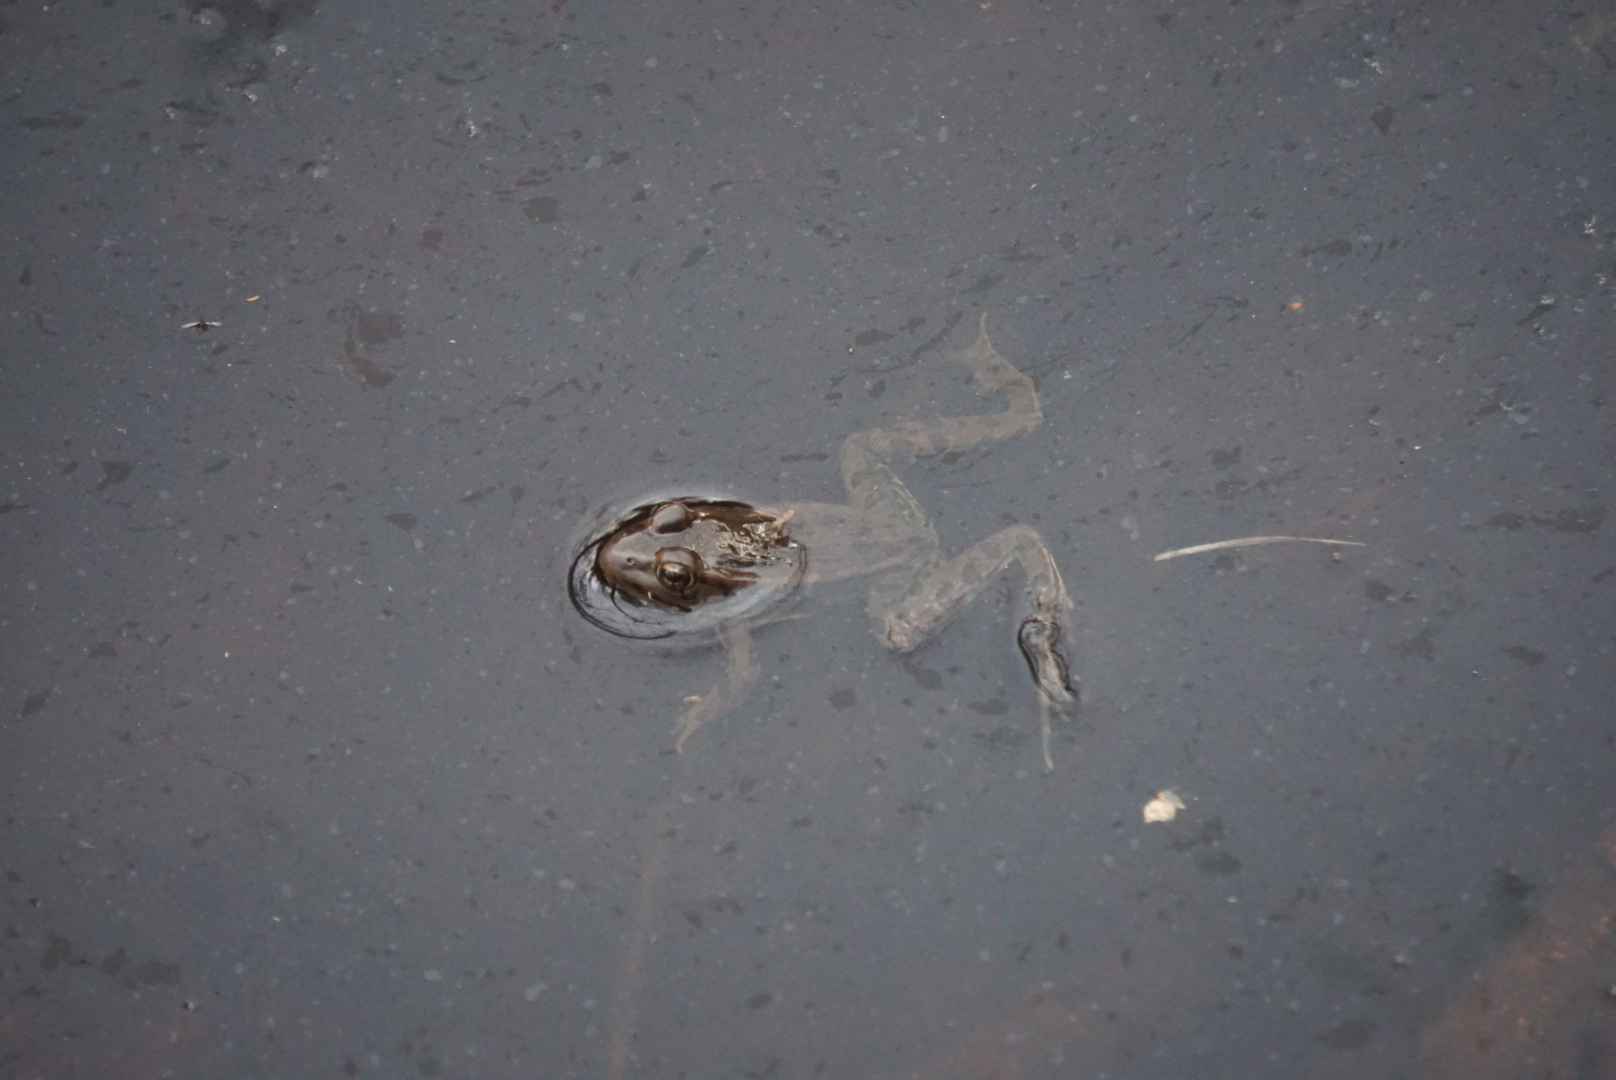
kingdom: Animalia
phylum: Chordata
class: Amphibia
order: Anura
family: Ranidae
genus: Lithobates
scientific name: Lithobates pipiens
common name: Northern leopard frog
